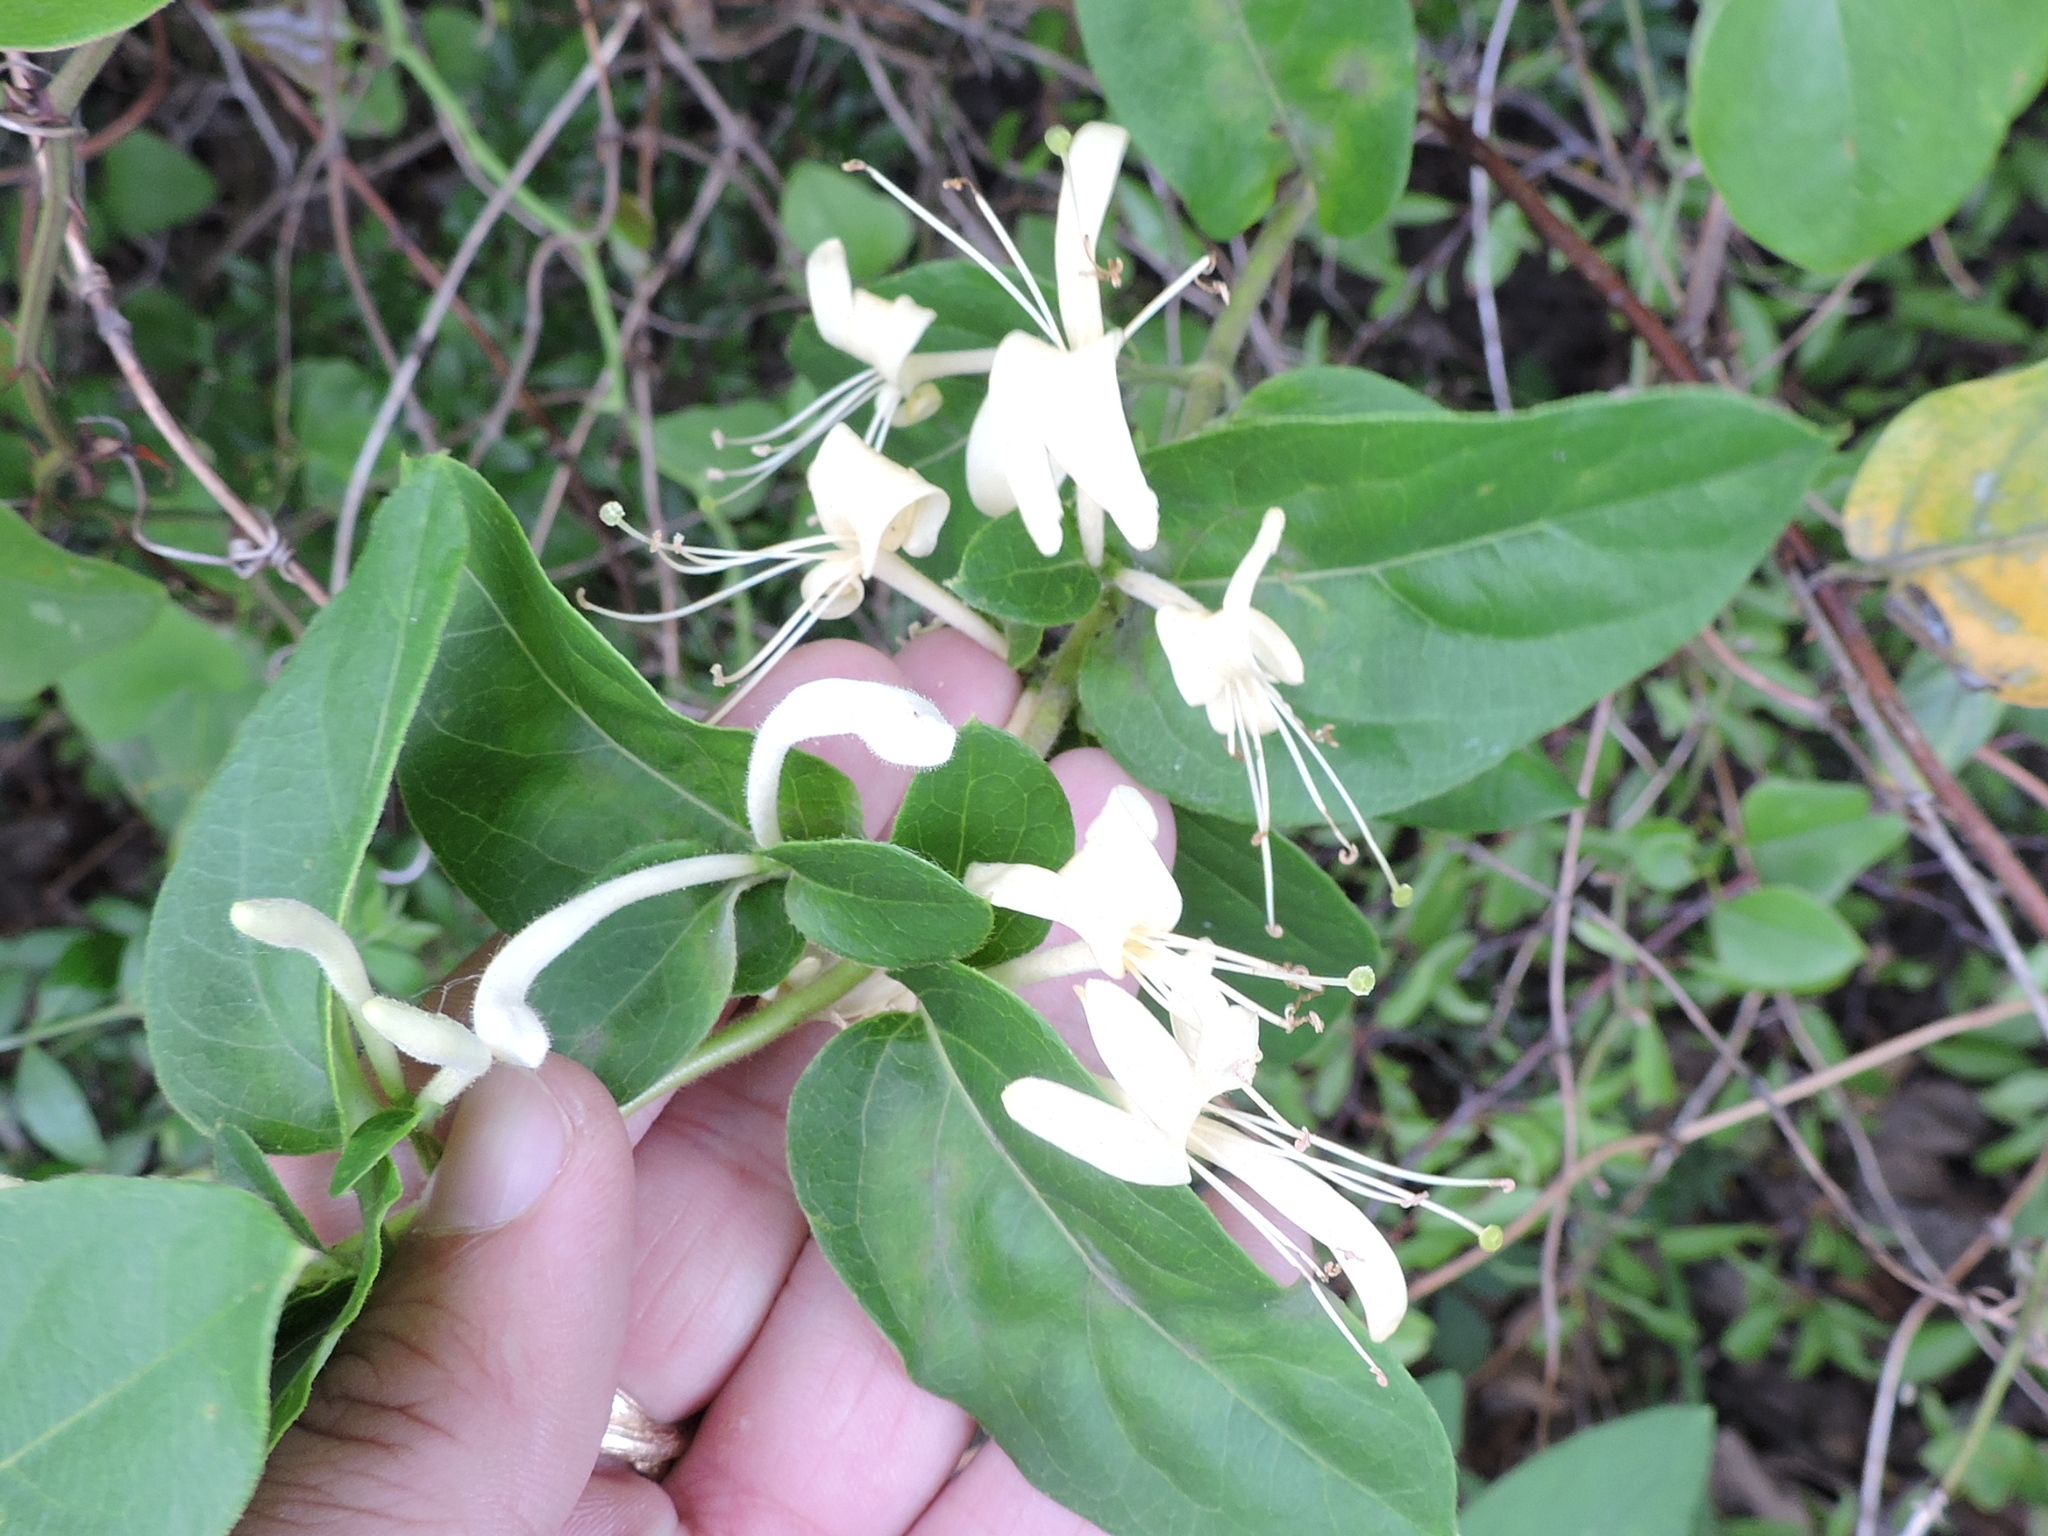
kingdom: Plantae
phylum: Tracheophyta
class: Magnoliopsida
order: Dipsacales
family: Caprifoliaceae
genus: Lonicera
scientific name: Lonicera japonica
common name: Japanese honeysuckle
